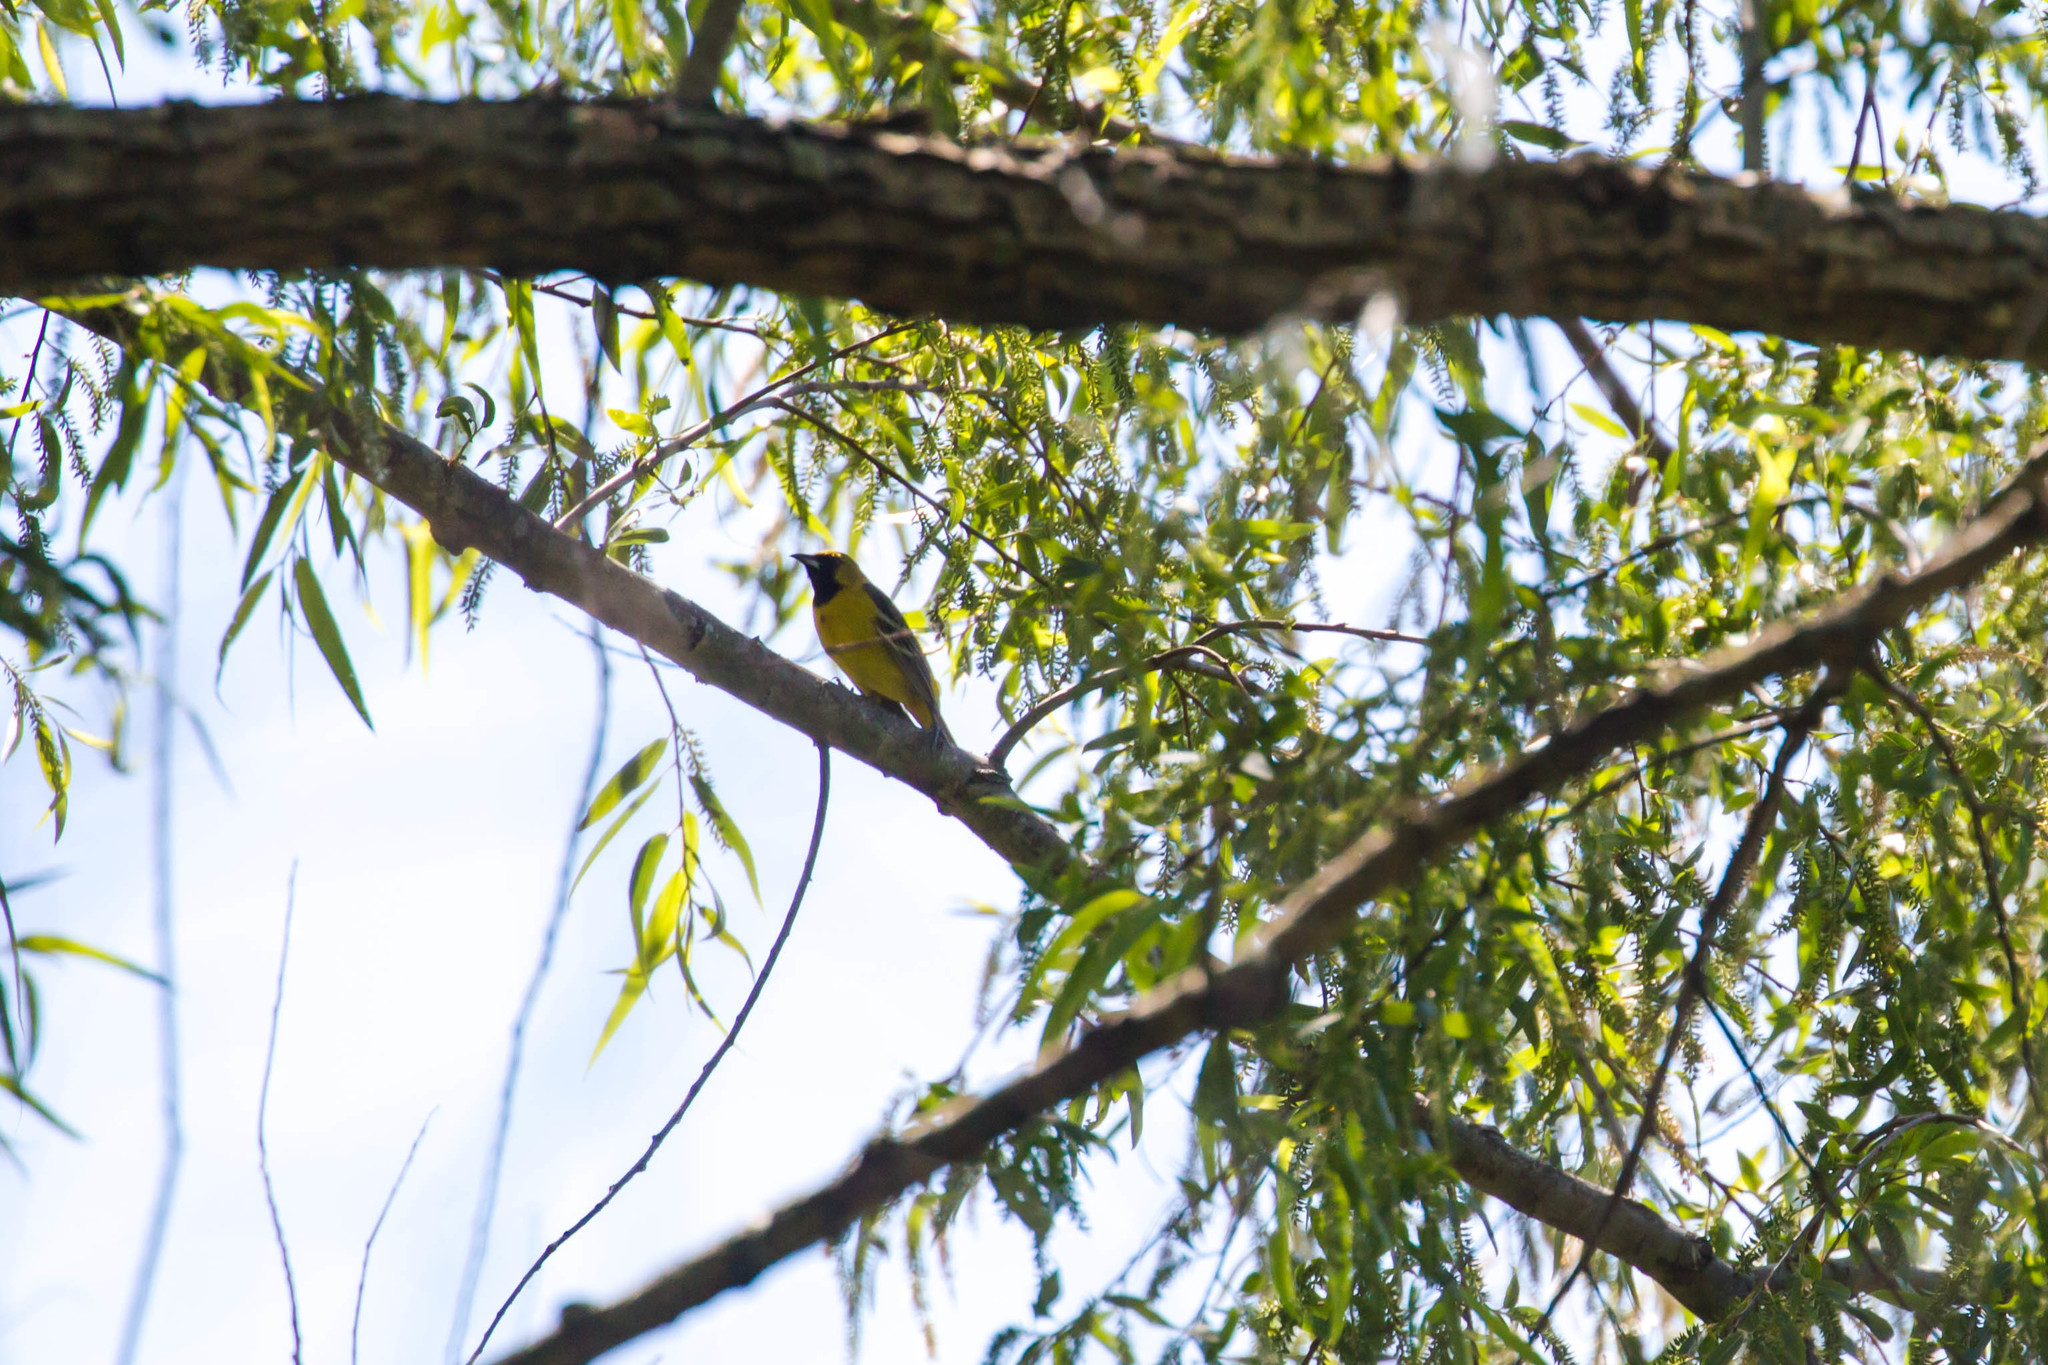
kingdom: Animalia
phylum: Chordata
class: Aves
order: Passeriformes
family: Icteridae
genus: Icterus
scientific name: Icterus spurius
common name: Orchard oriole
